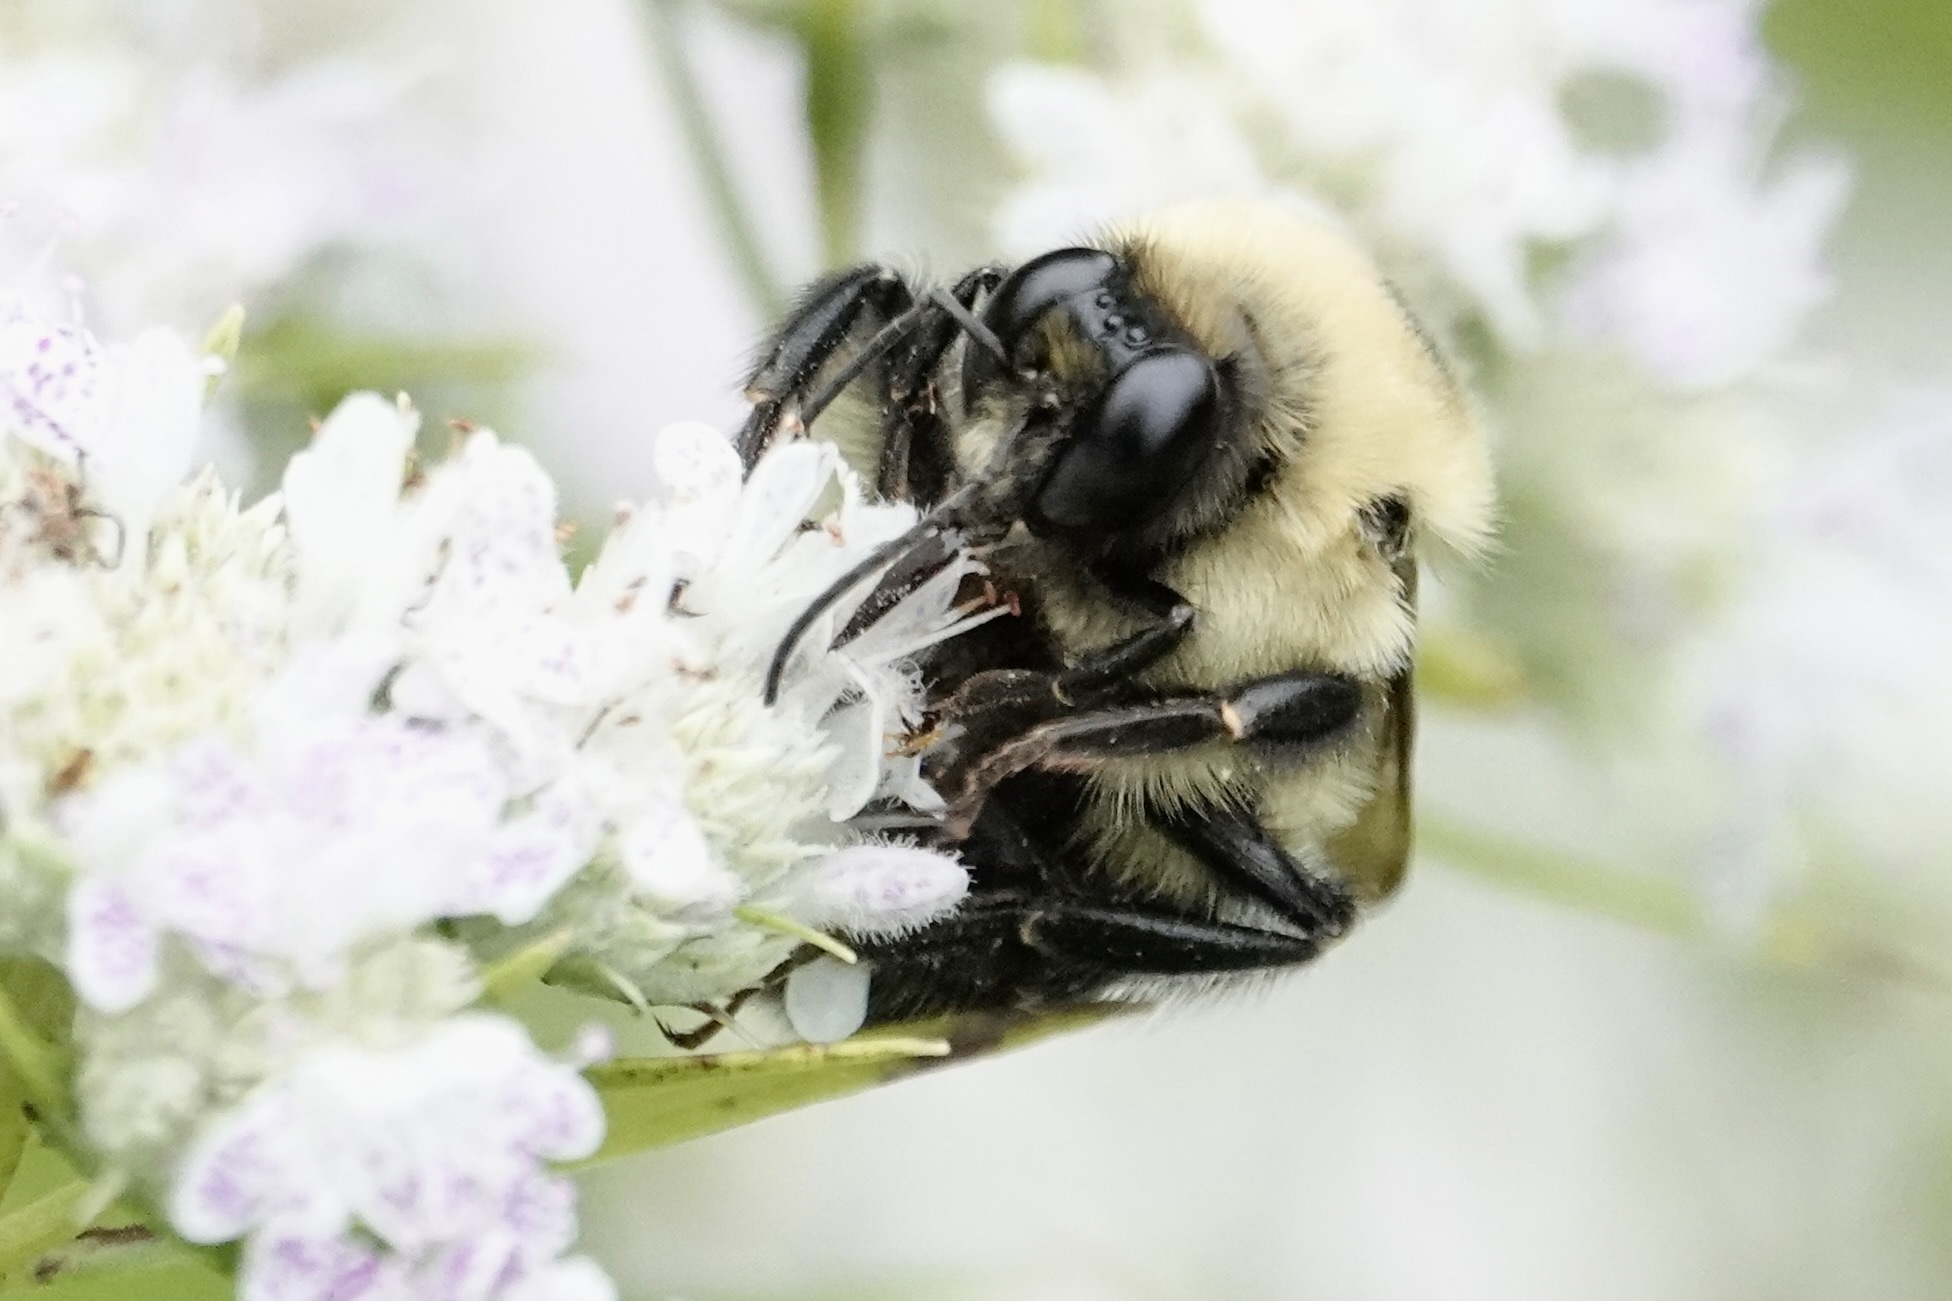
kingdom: Animalia
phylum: Arthropoda
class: Insecta
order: Hymenoptera
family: Apidae
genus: Bombus
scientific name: Bombus griseocollis
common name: Brown-belted bumble bee
